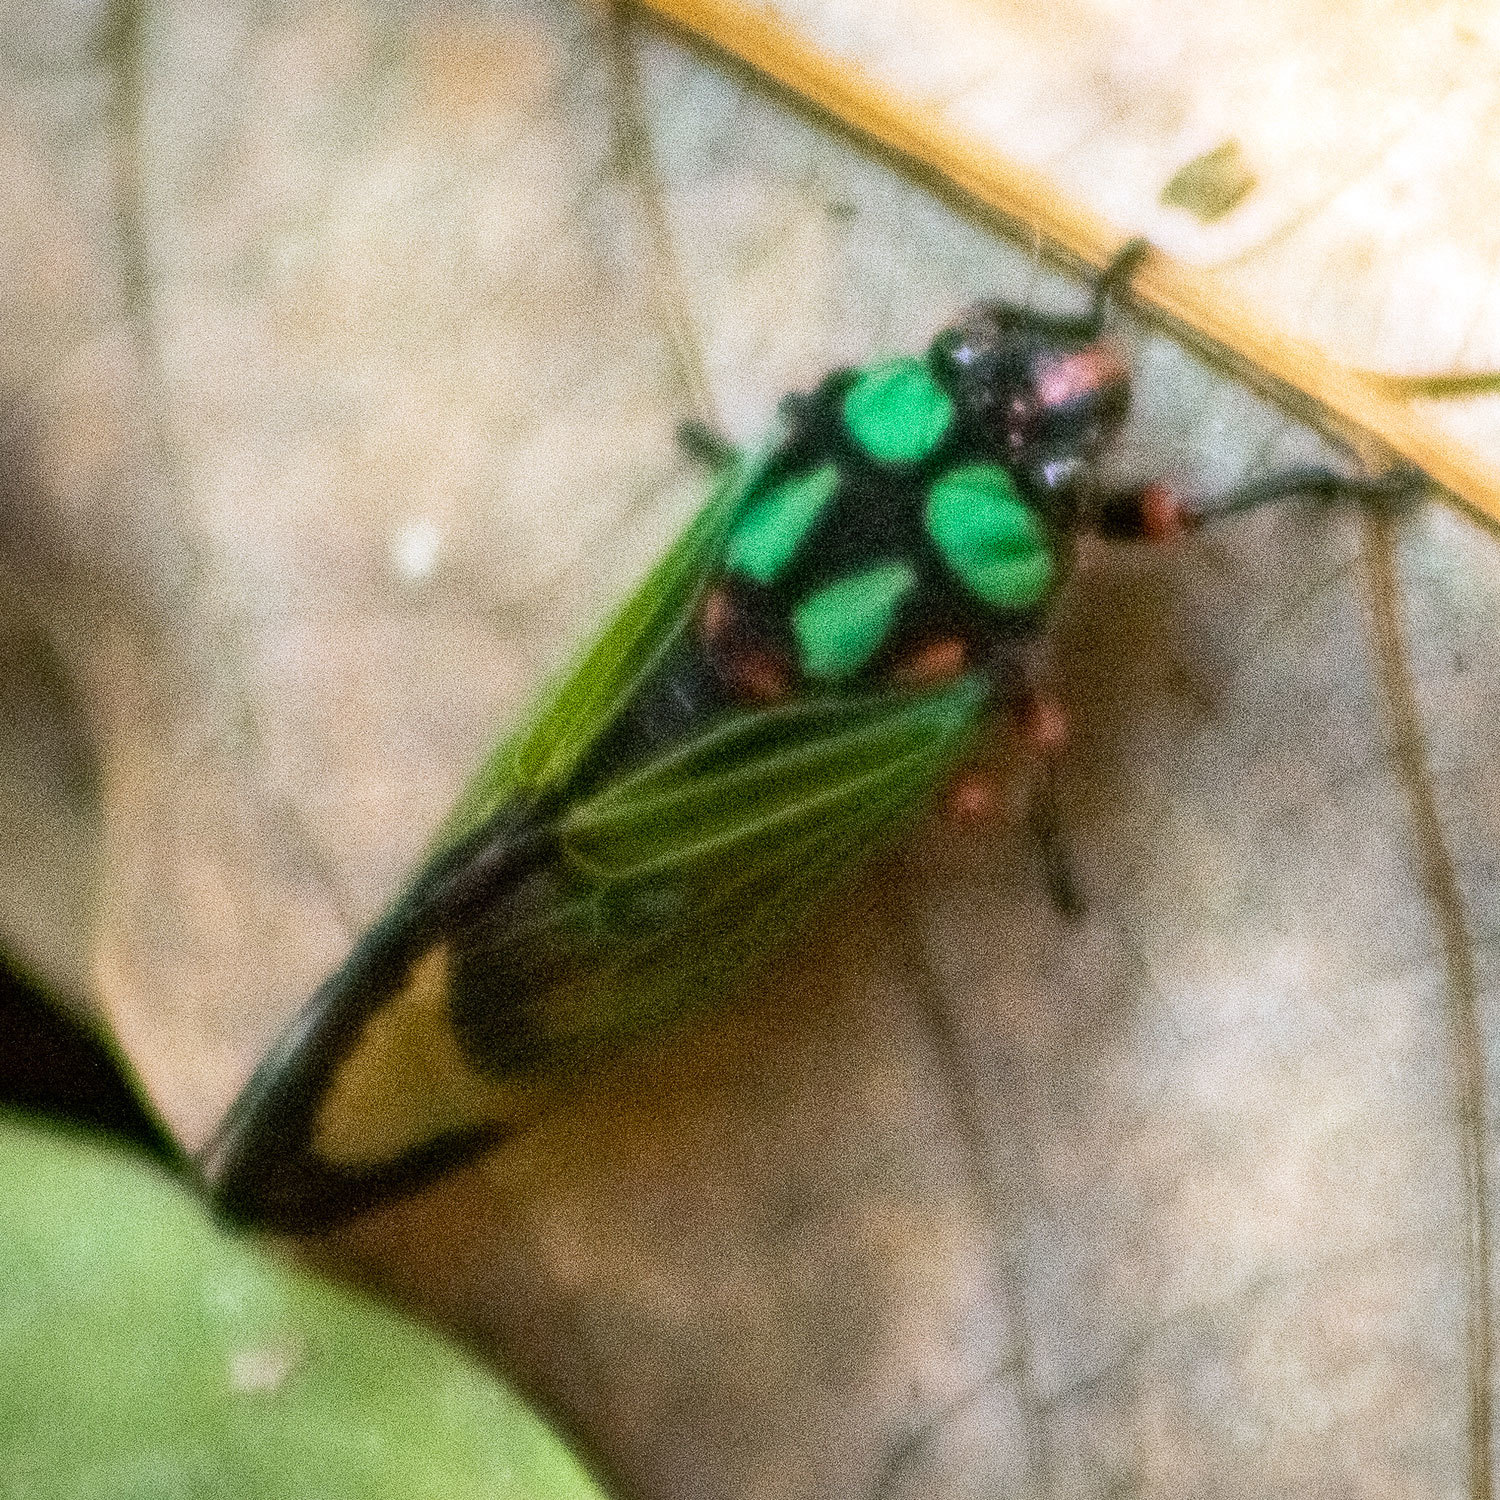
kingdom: Animalia
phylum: Arthropoda
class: Insecta
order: Hemiptera
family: Cicadidae
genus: Carineta
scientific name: Carineta diardi
